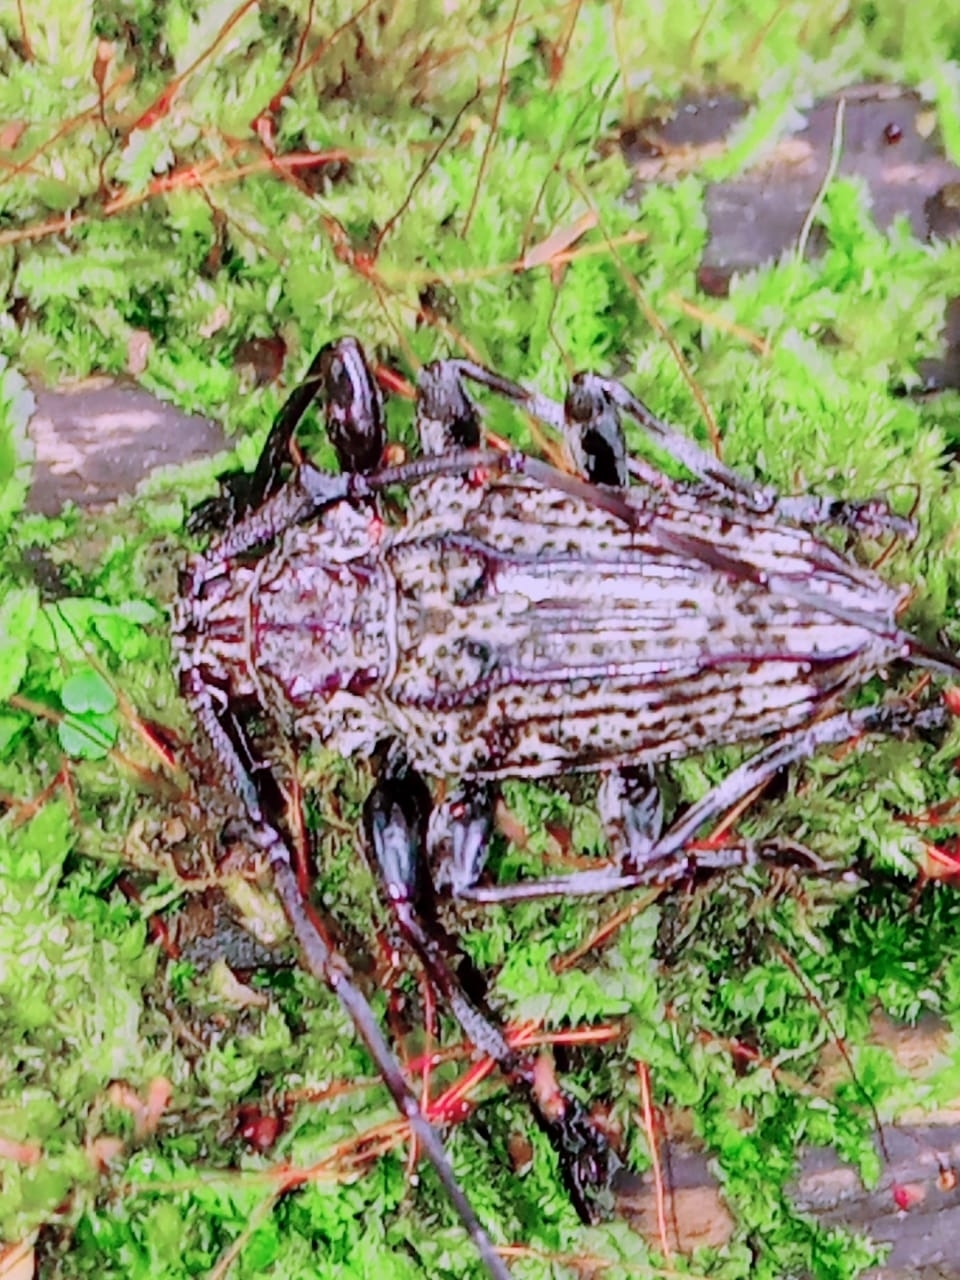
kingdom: Animalia
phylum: Arthropoda
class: Insecta
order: Coleoptera
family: Cerambycidae
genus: Steirastoma
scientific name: Steirastoma breve
